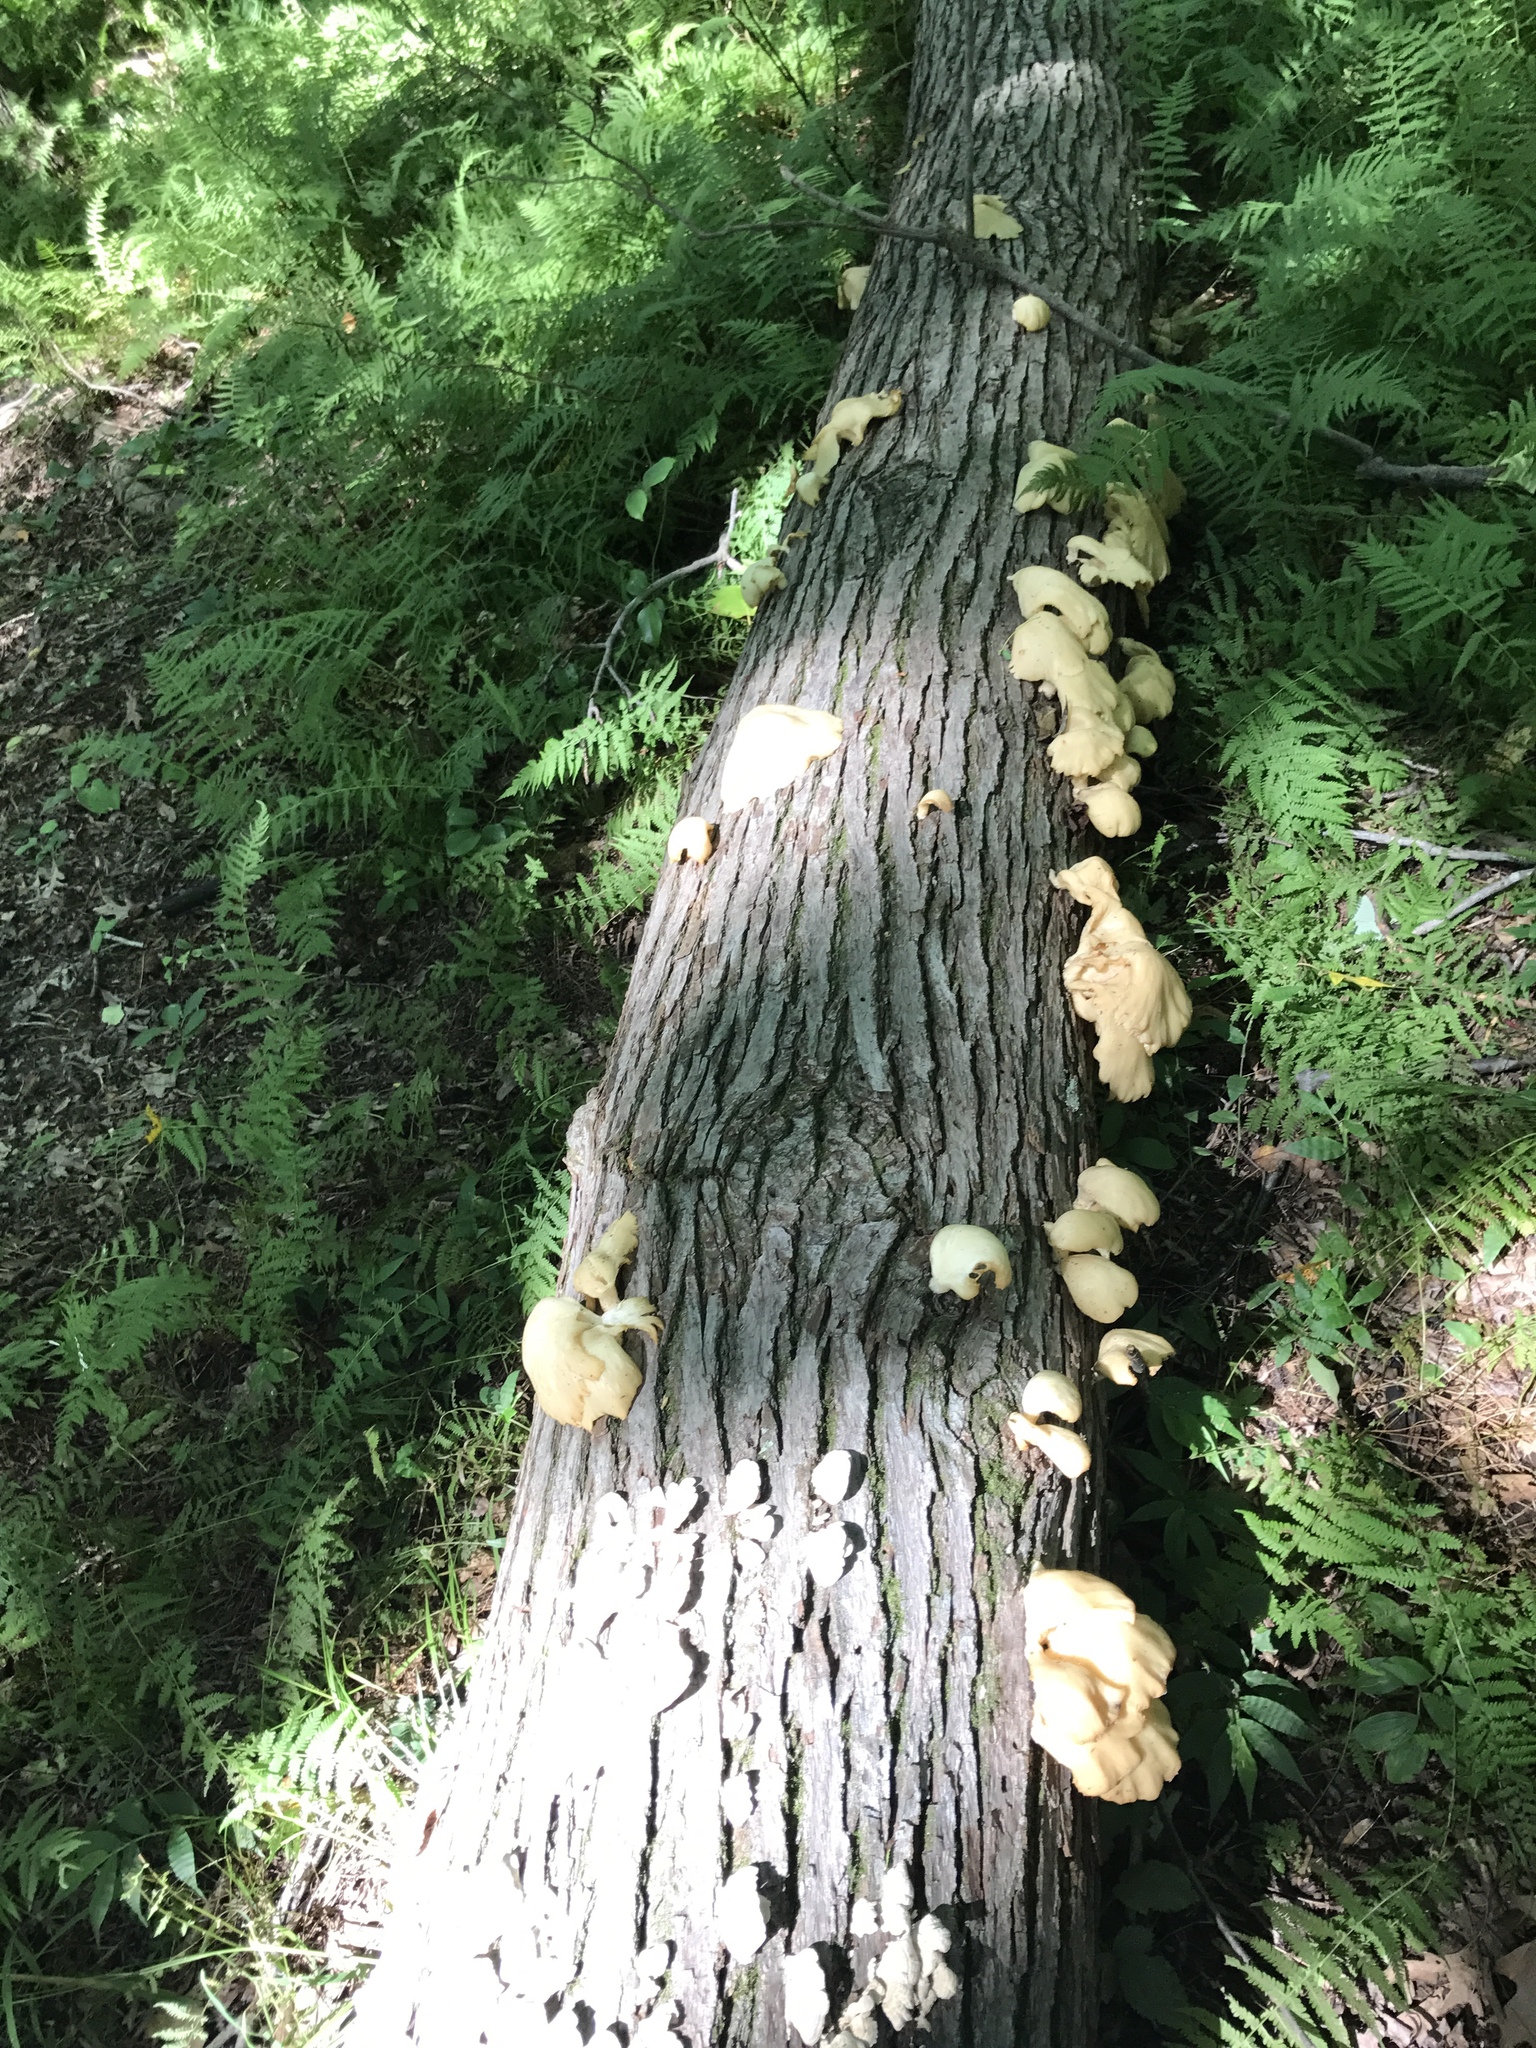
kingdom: Fungi
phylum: Basidiomycota
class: Agaricomycetes
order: Agaricales
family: Pleurotaceae
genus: Pleurotus
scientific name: Pleurotus ostreatus
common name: Oyster mushroom
